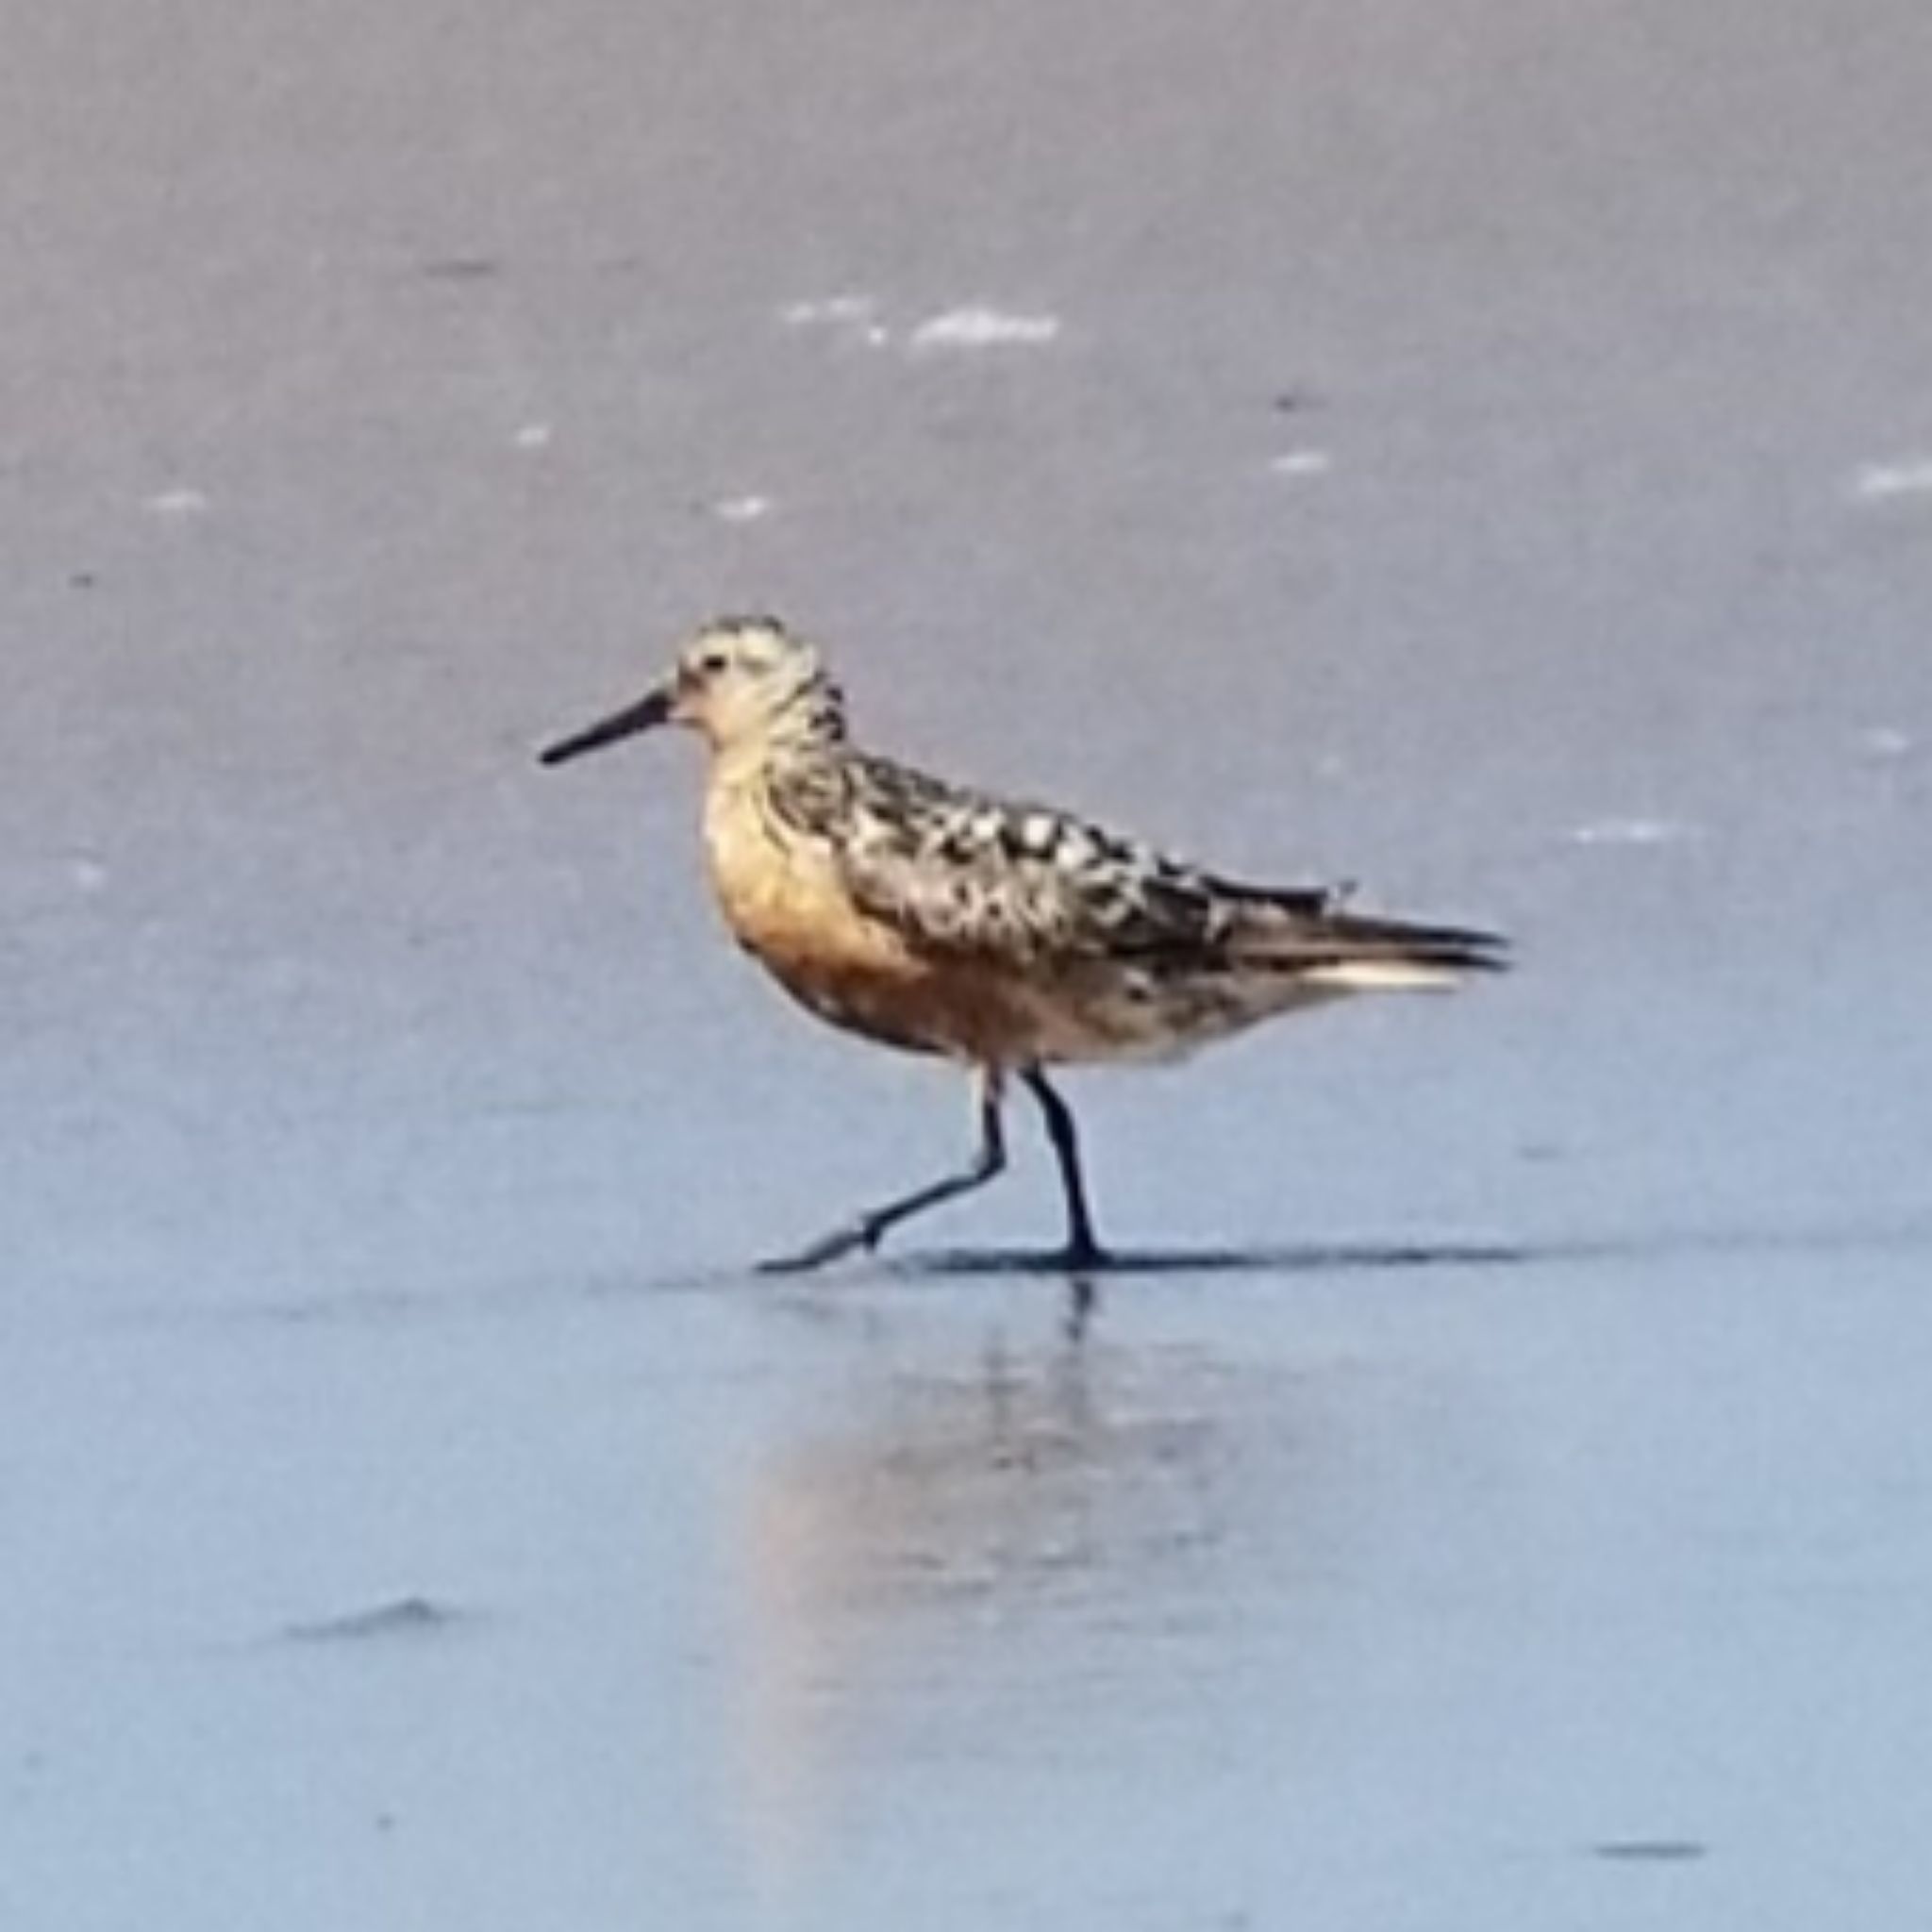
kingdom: Animalia
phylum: Chordata
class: Aves
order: Charadriiformes
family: Scolopacidae
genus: Calidris
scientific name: Calidris canutus
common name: Red knot
